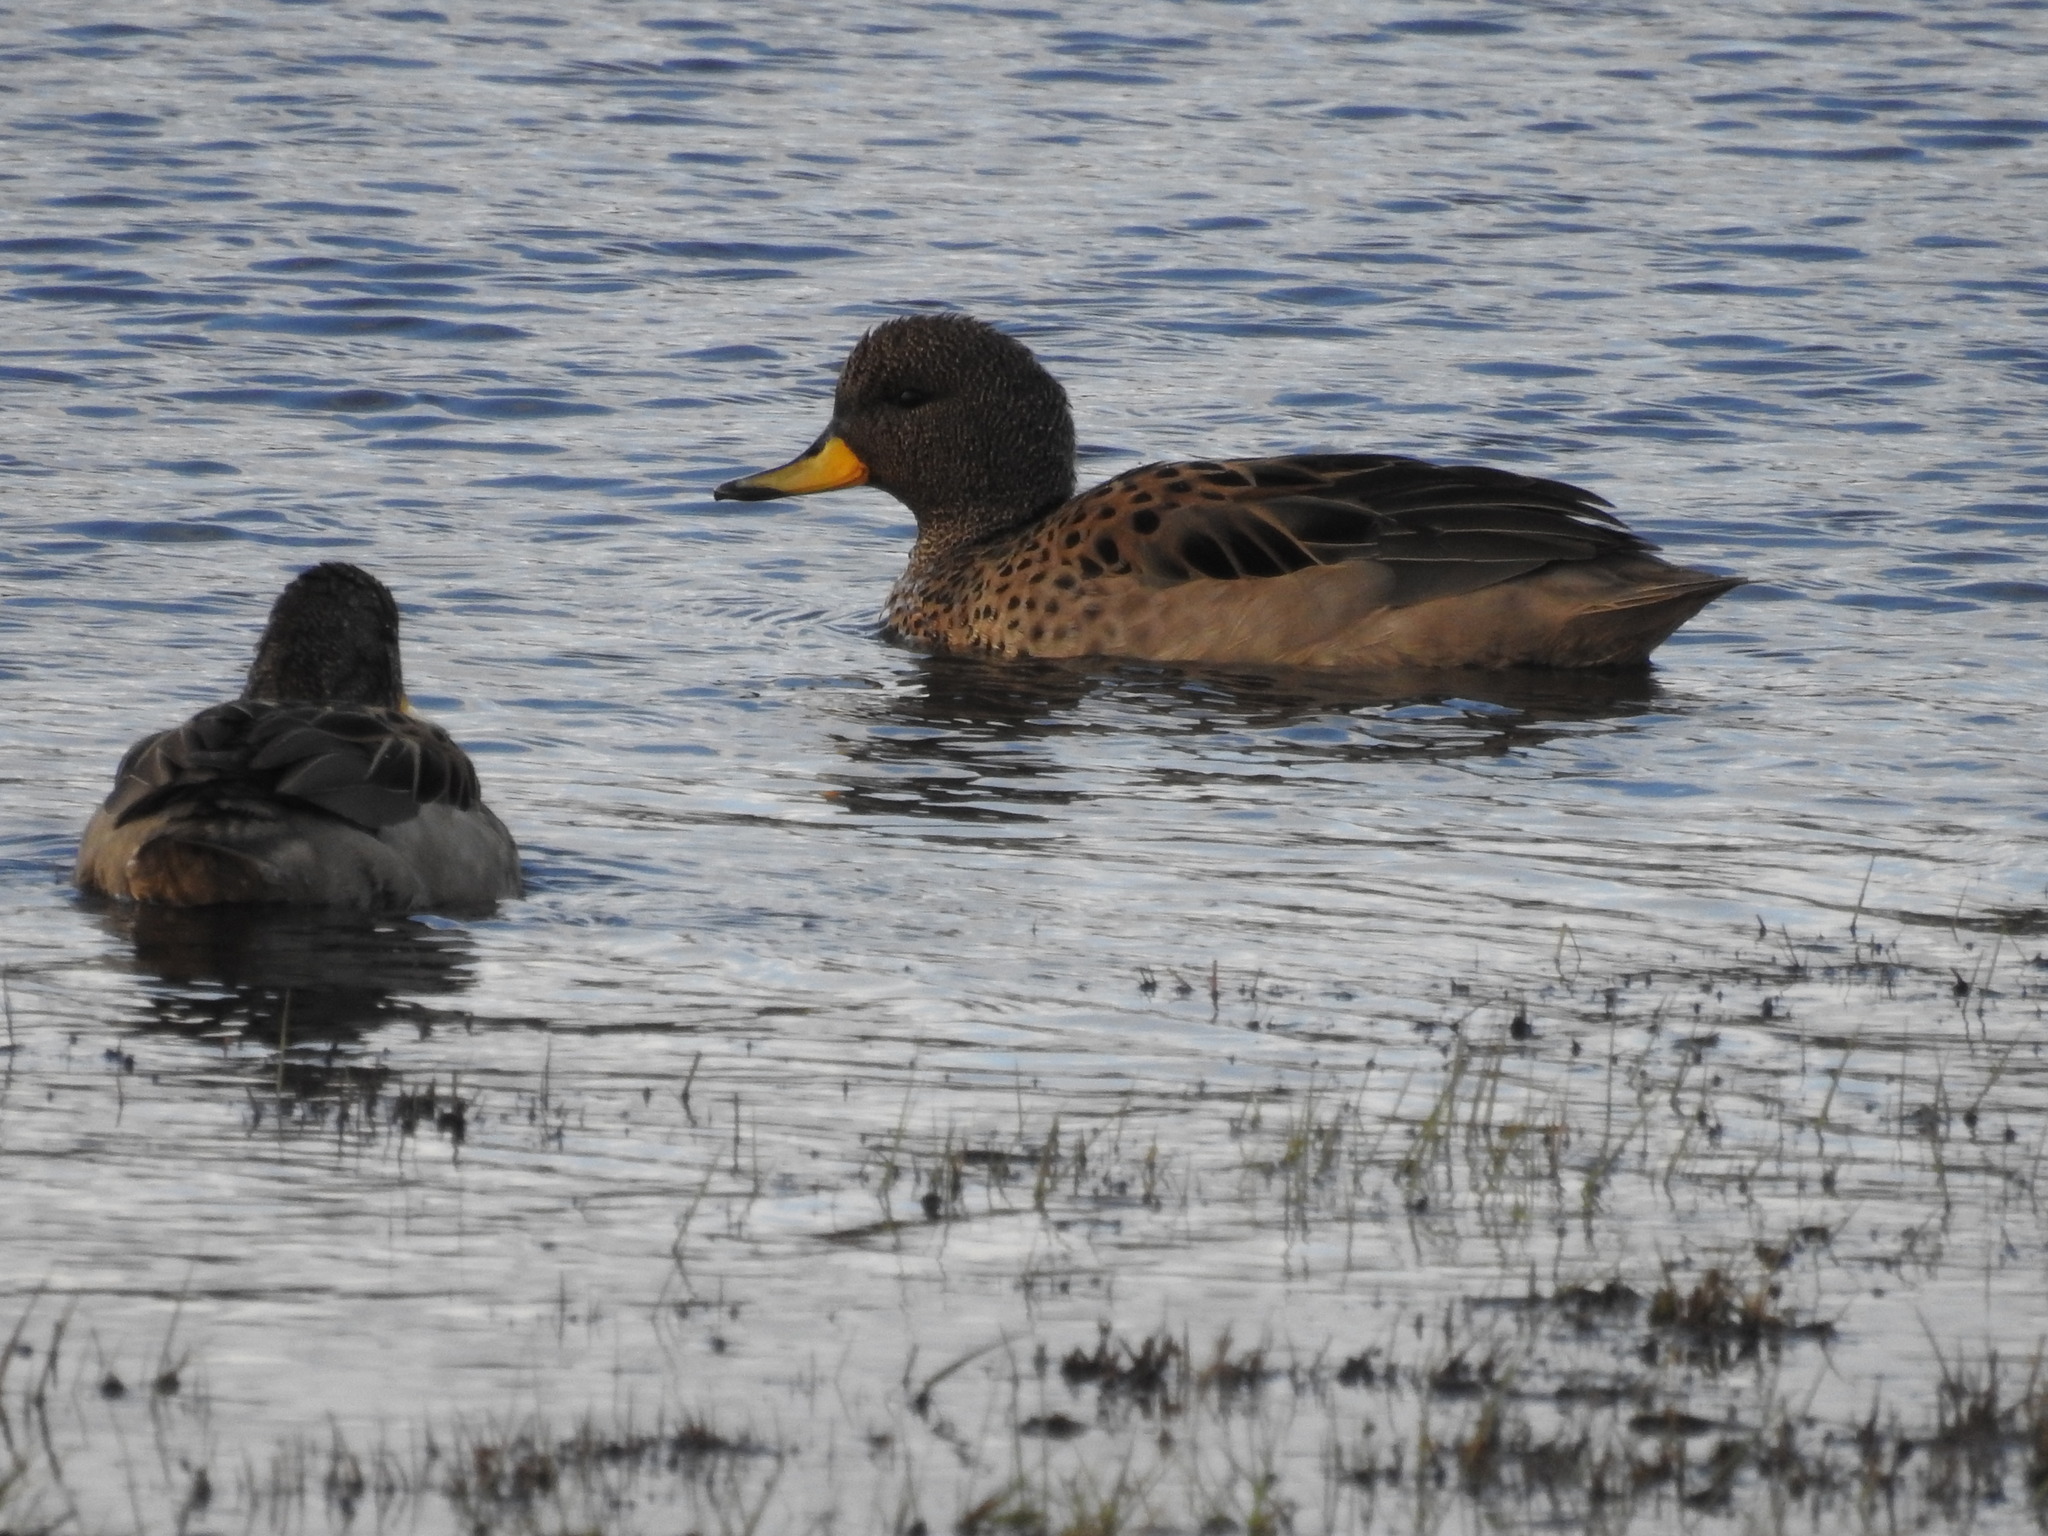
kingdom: Animalia
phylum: Chordata
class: Aves
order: Anseriformes
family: Anatidae
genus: Anas
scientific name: Anas flavirostris
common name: Yellow-billed teal
